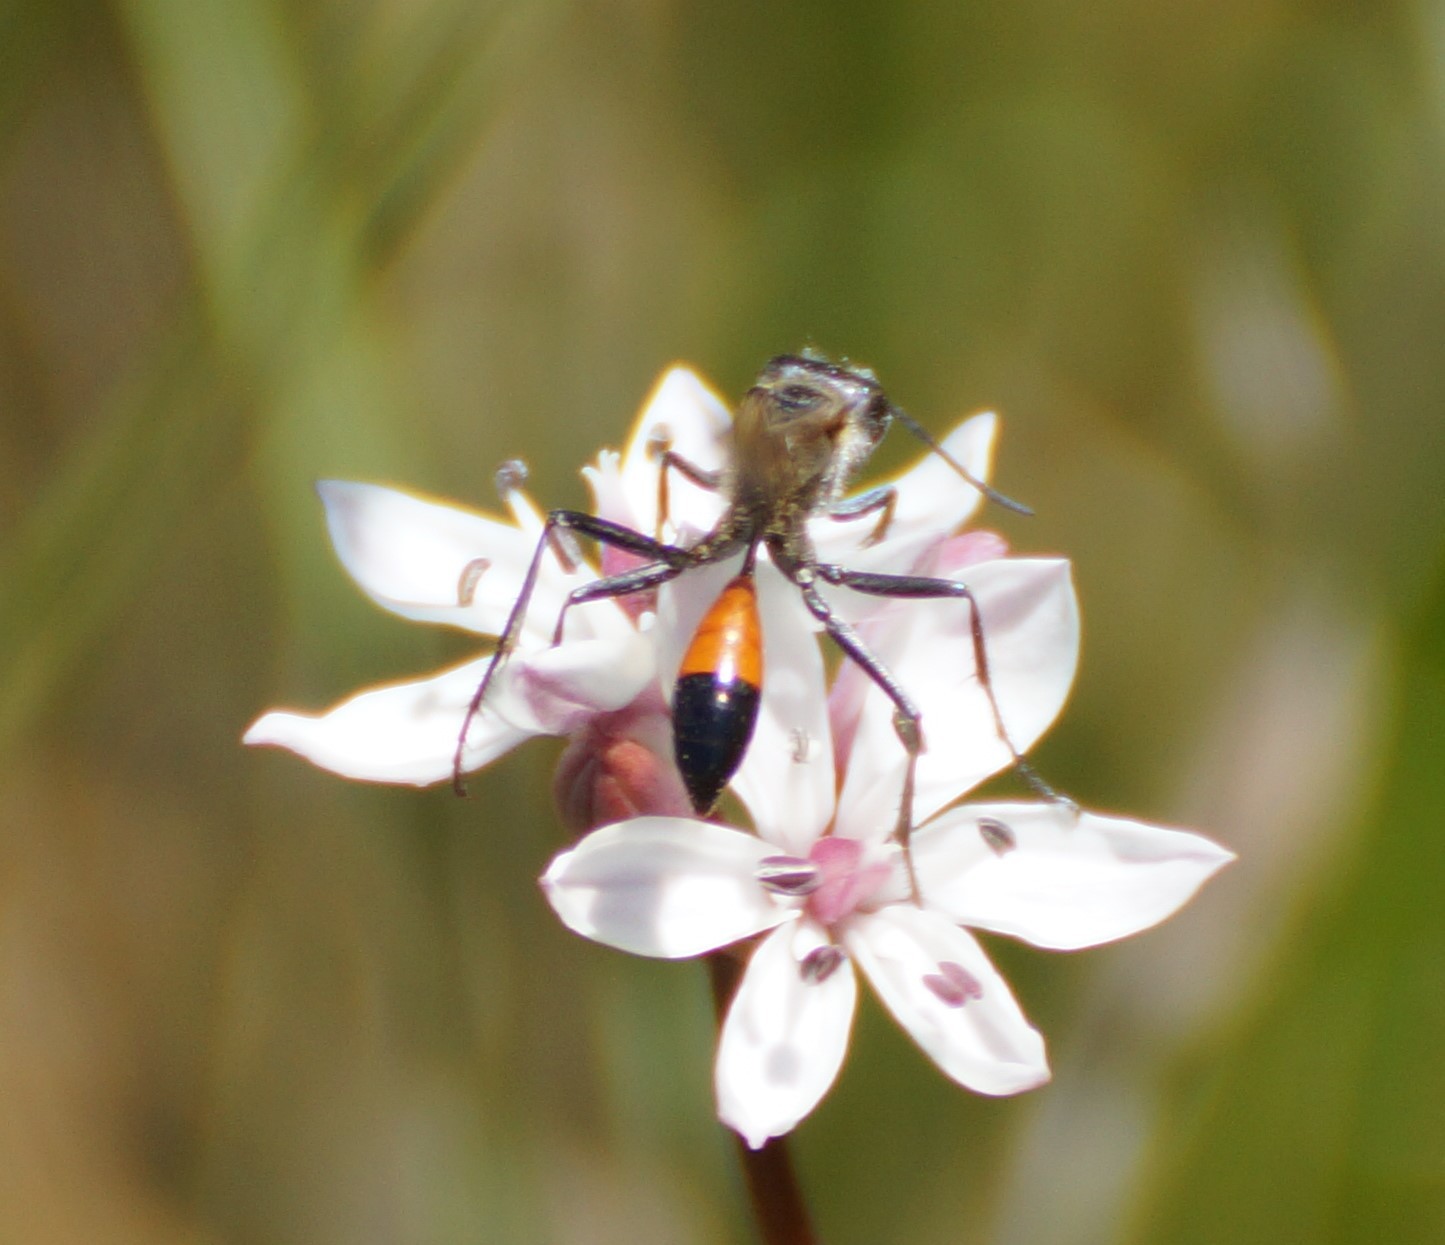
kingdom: Animalia
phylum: Arthropoda
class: Insecta
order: Hymenoptera
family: Sphecidae
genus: Podalonia
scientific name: Podalonia tydei
